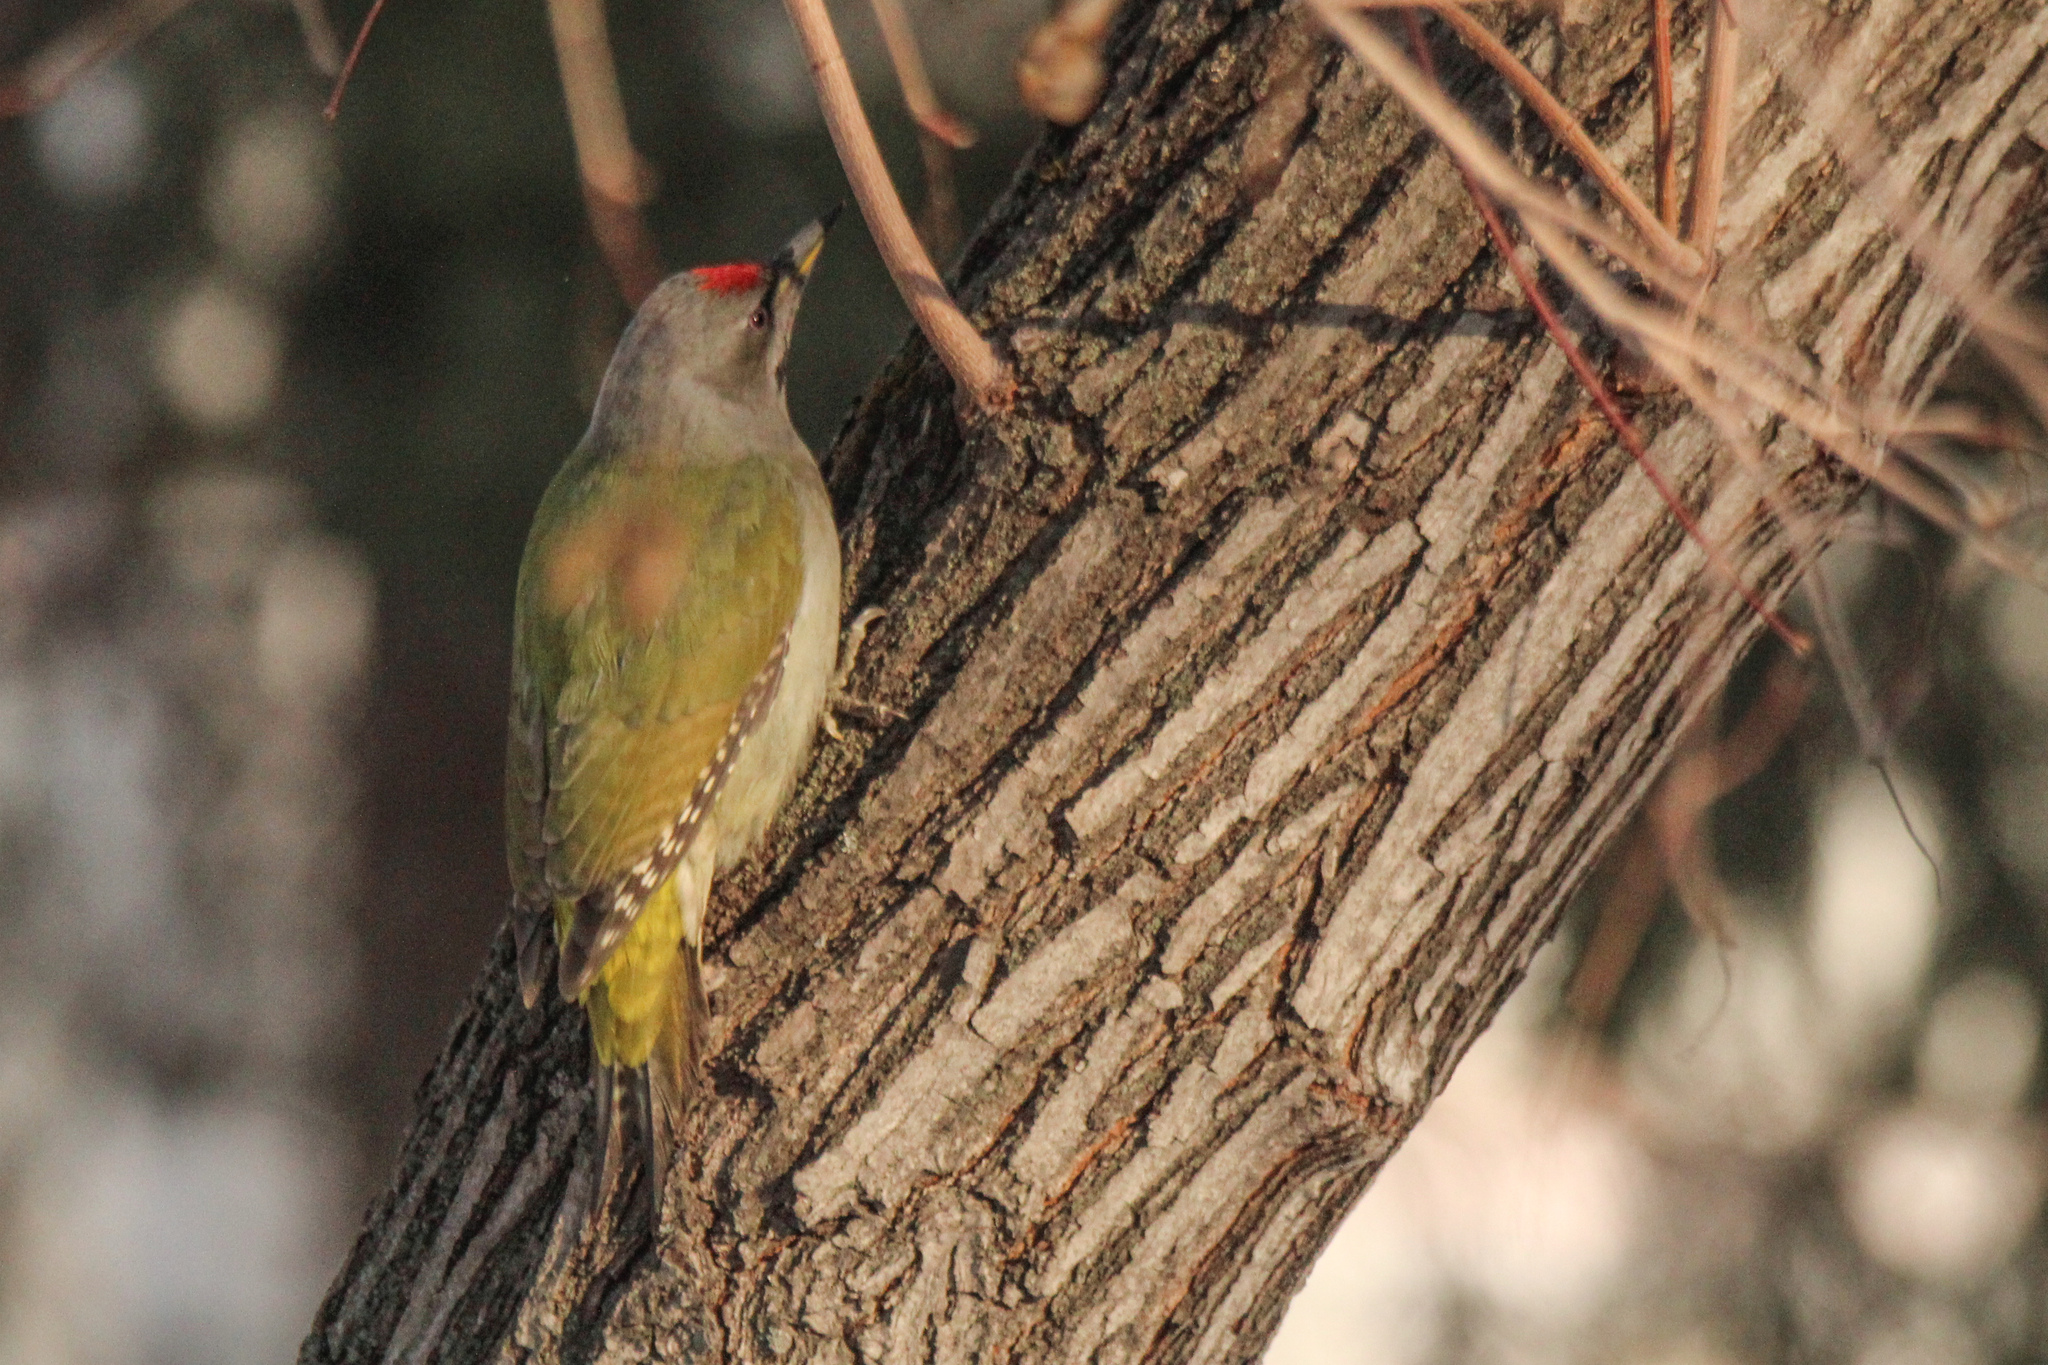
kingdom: Animalia
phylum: Chordata
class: Aves
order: Piciformes
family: Picidae
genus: Picus
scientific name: Picus canus
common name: Grey-headed woodpecker
